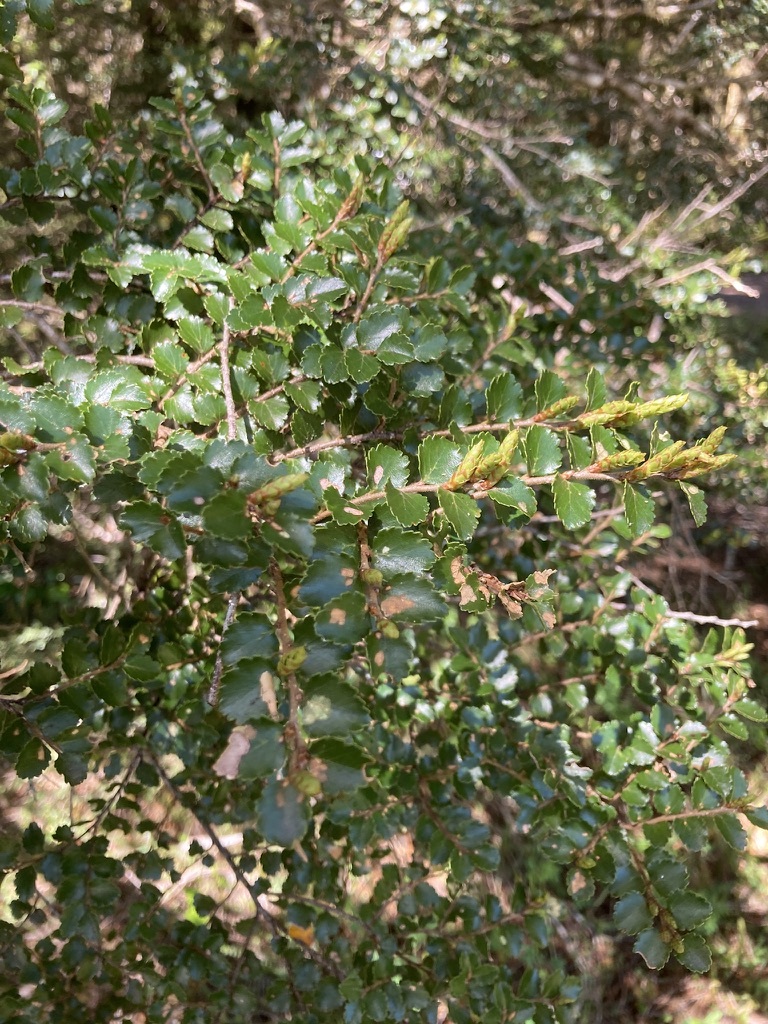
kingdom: Plantae
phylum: Tracheophyta
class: Magnoliopsida
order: Fagales
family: Nothofagaceae
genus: Nothofagus
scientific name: Nothofagus menziesii
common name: Silver beech
